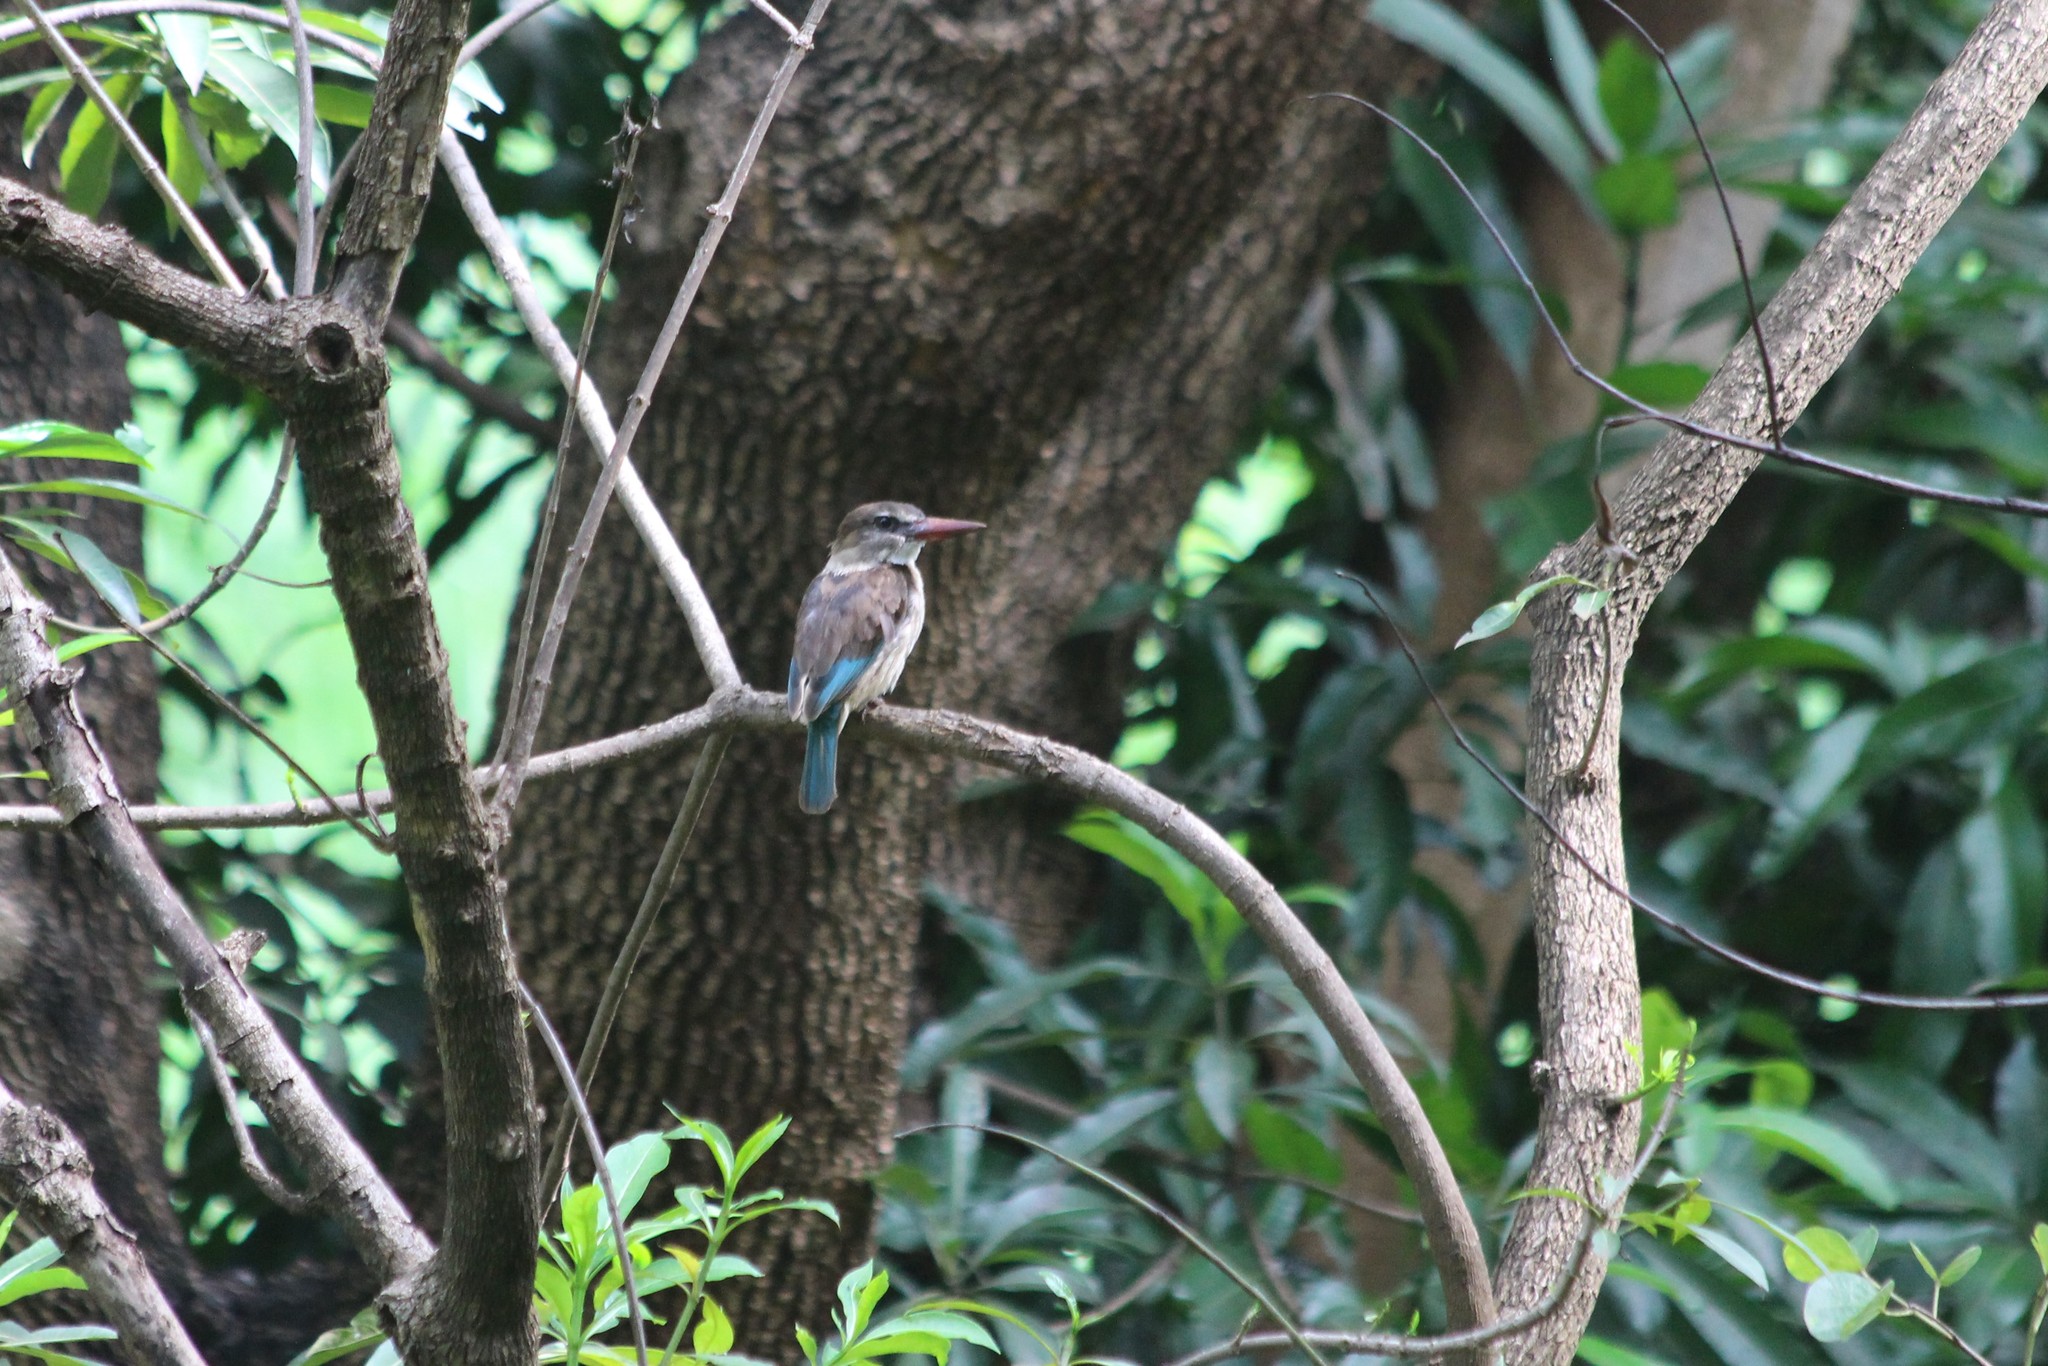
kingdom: Animalia
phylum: Chordata
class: Aves
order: Coraciiformes
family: Alcedinidae
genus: Halcyon
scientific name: Halcyon albiventris
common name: Brown-hooded kingfisher
